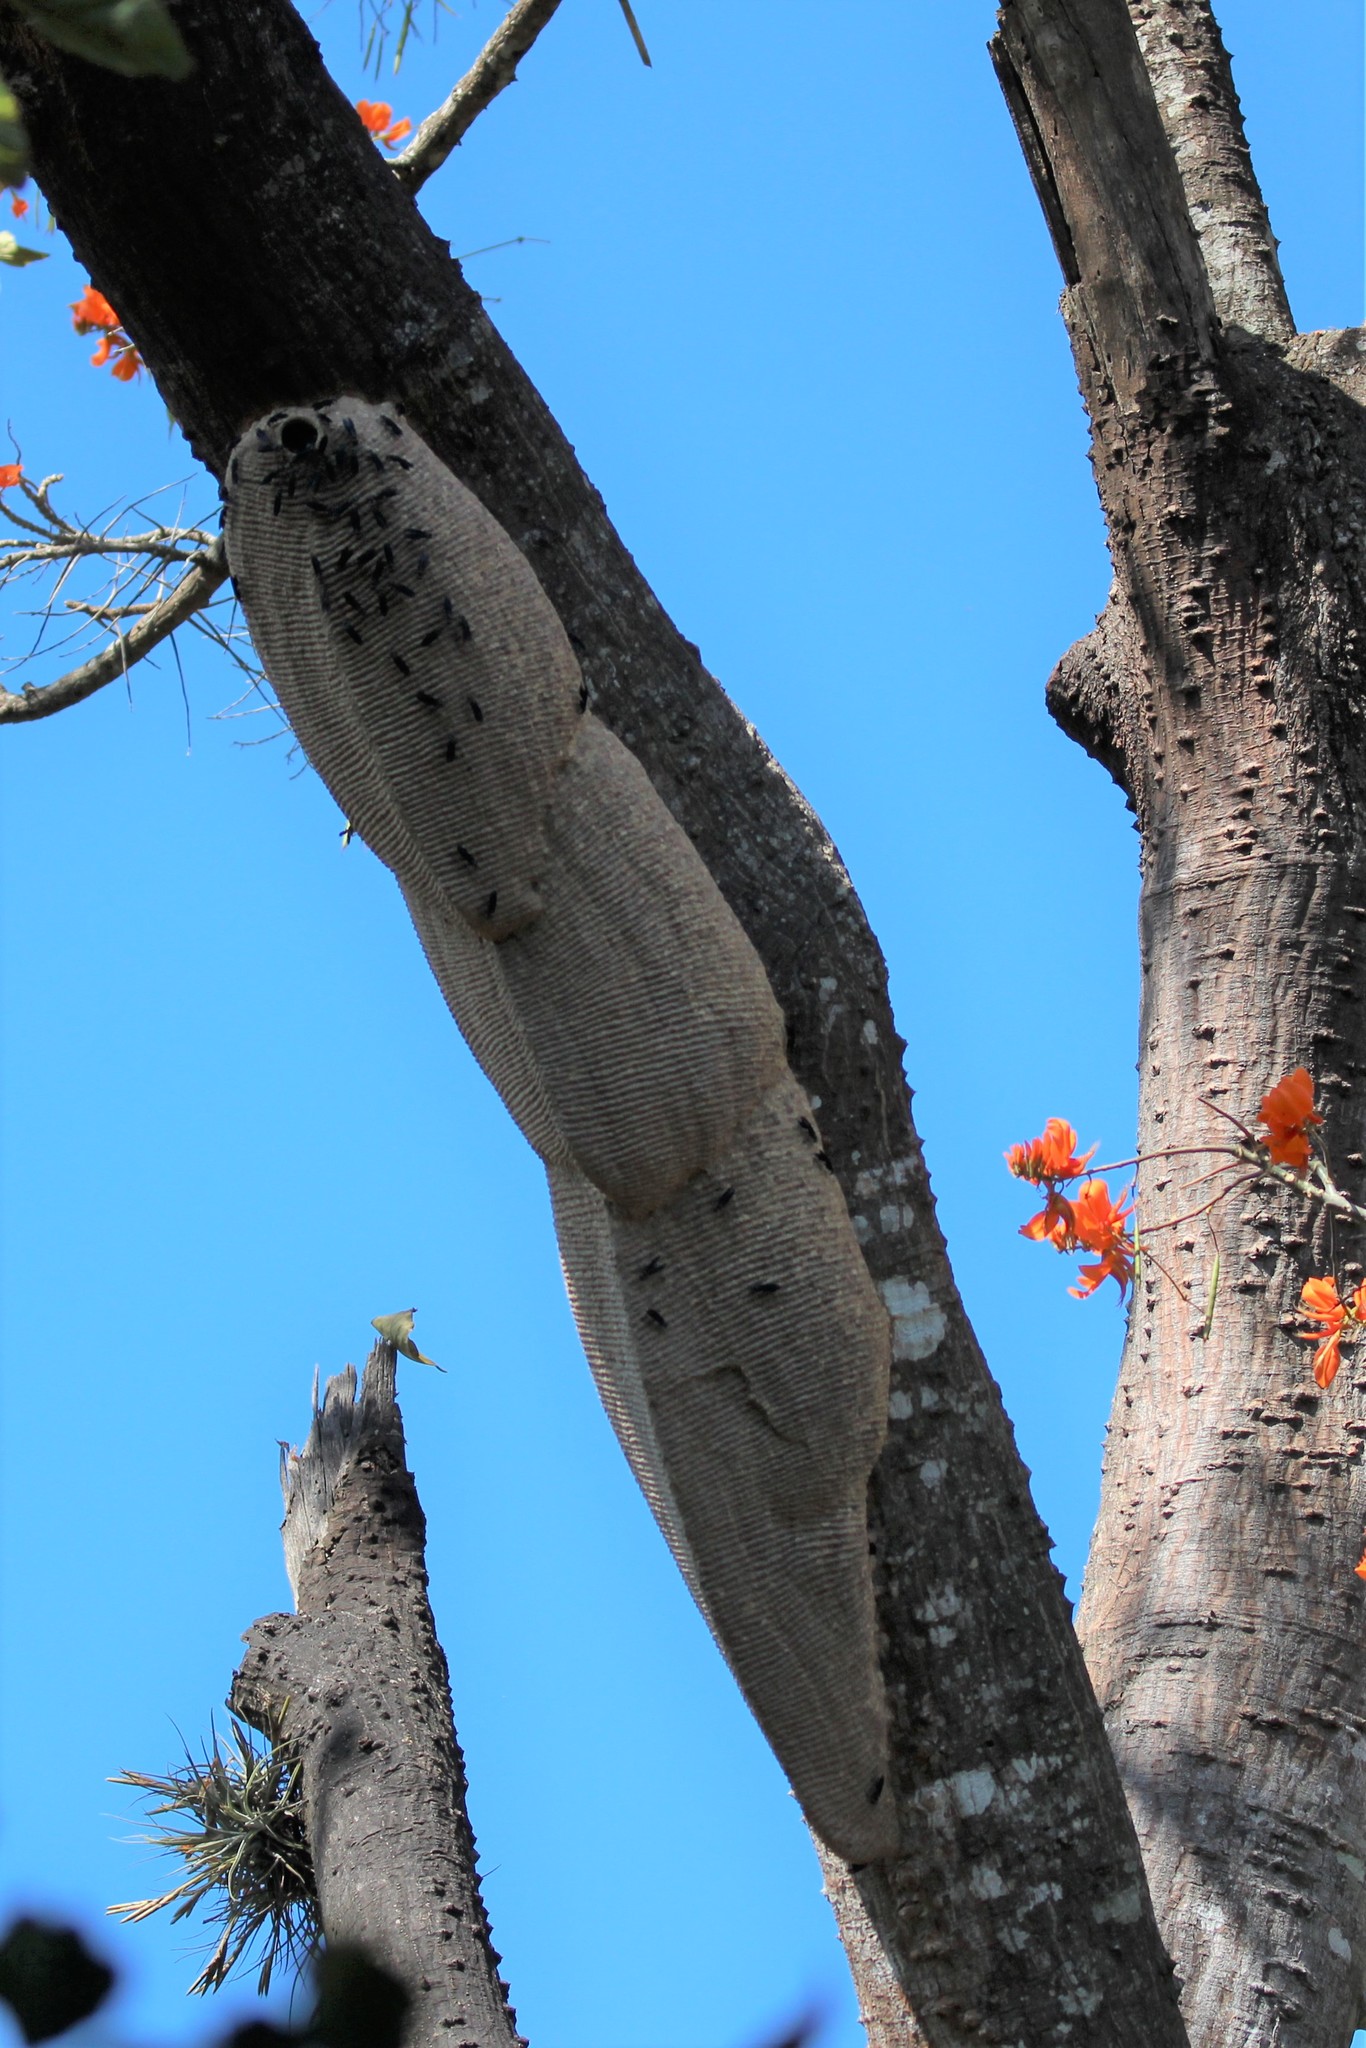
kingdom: Animalia
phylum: Arthropoda
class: Insecta
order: Hymenoptera
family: Vespidae
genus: Synoeca
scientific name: Synoeca septentrionalis
